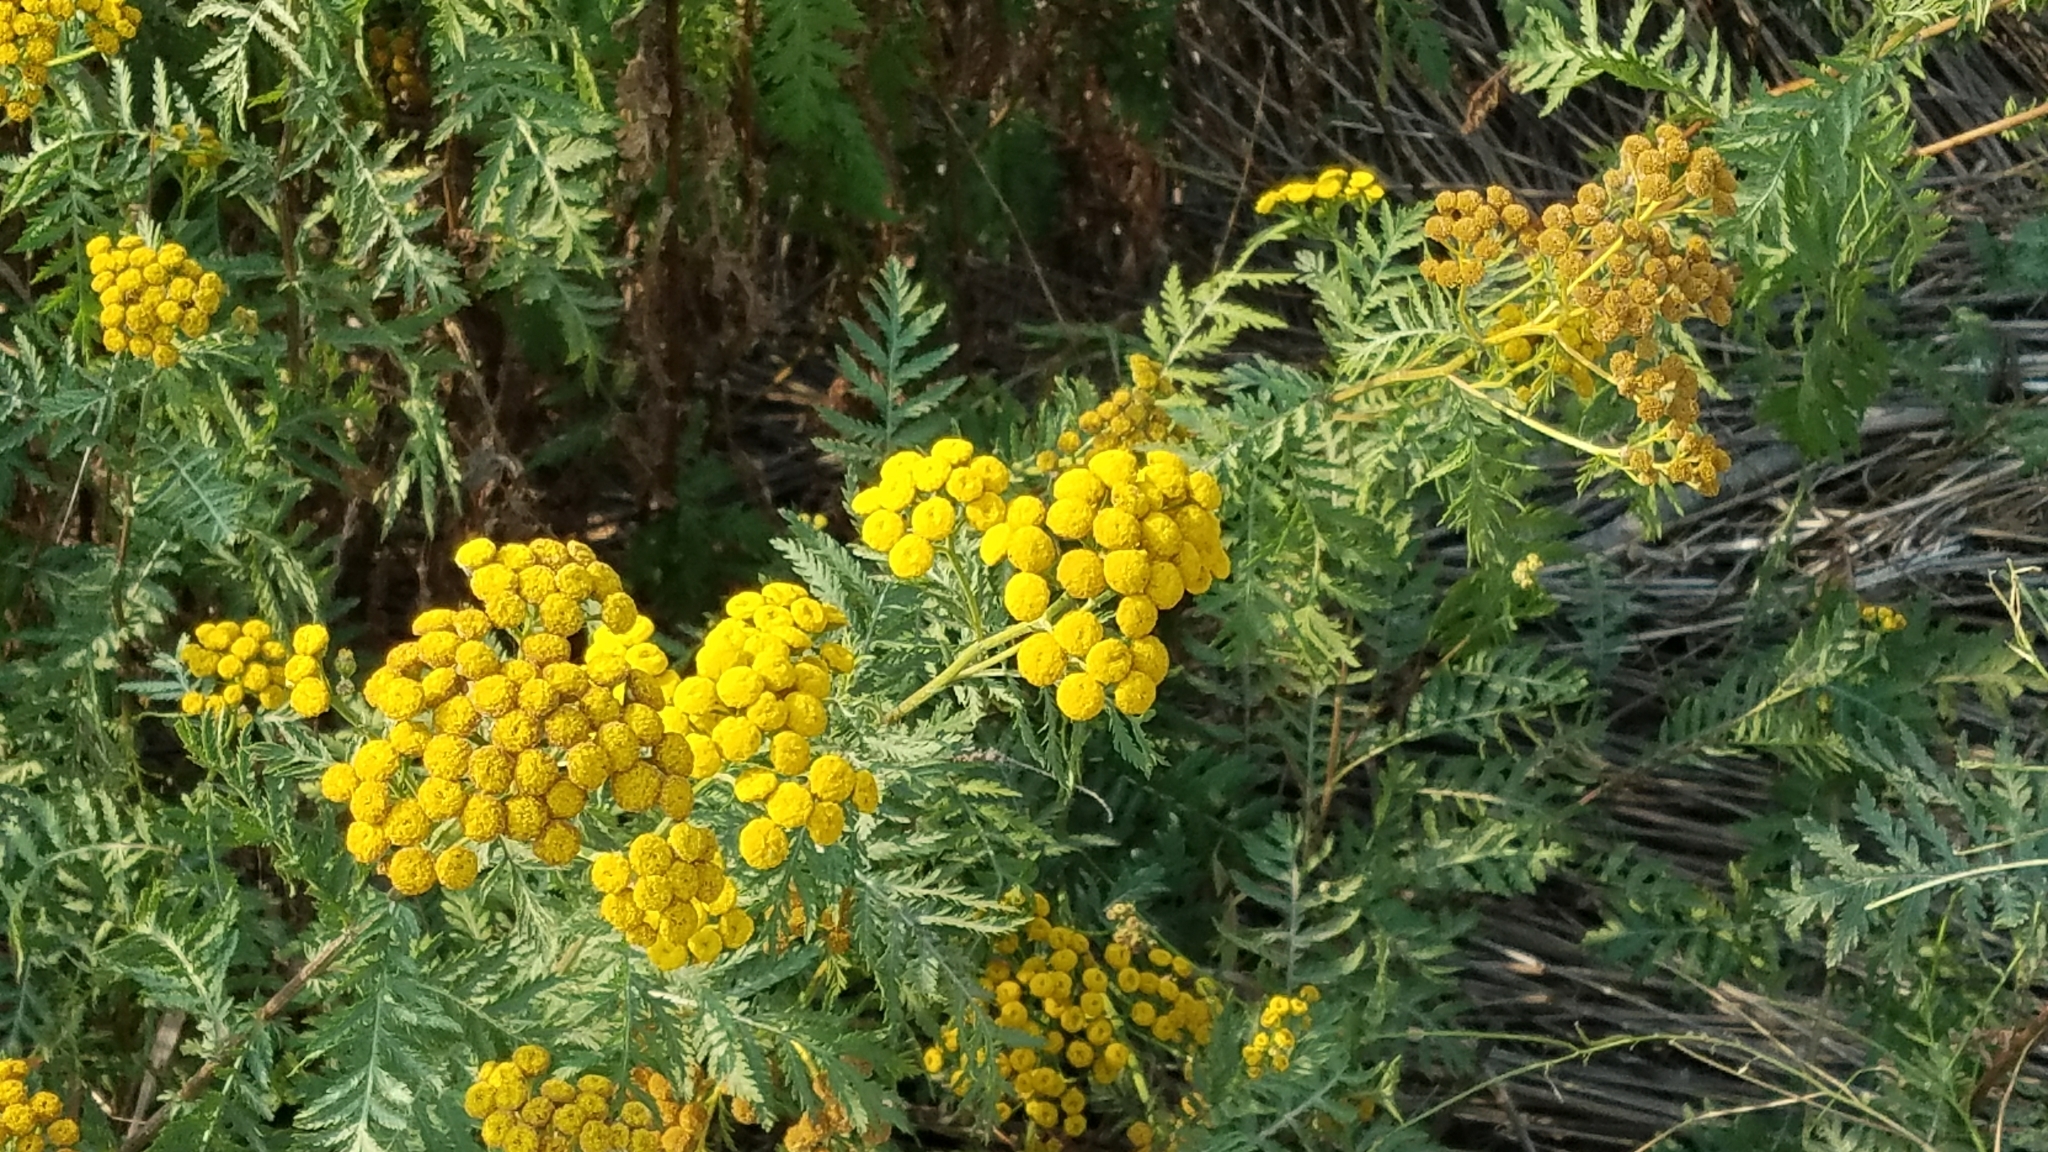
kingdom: Plantae
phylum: Tracheophyta
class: Magnoliopsida
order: Asterales
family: Asteraceae
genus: Tanacetum
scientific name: Tanacetum vulgare
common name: Common tansy
